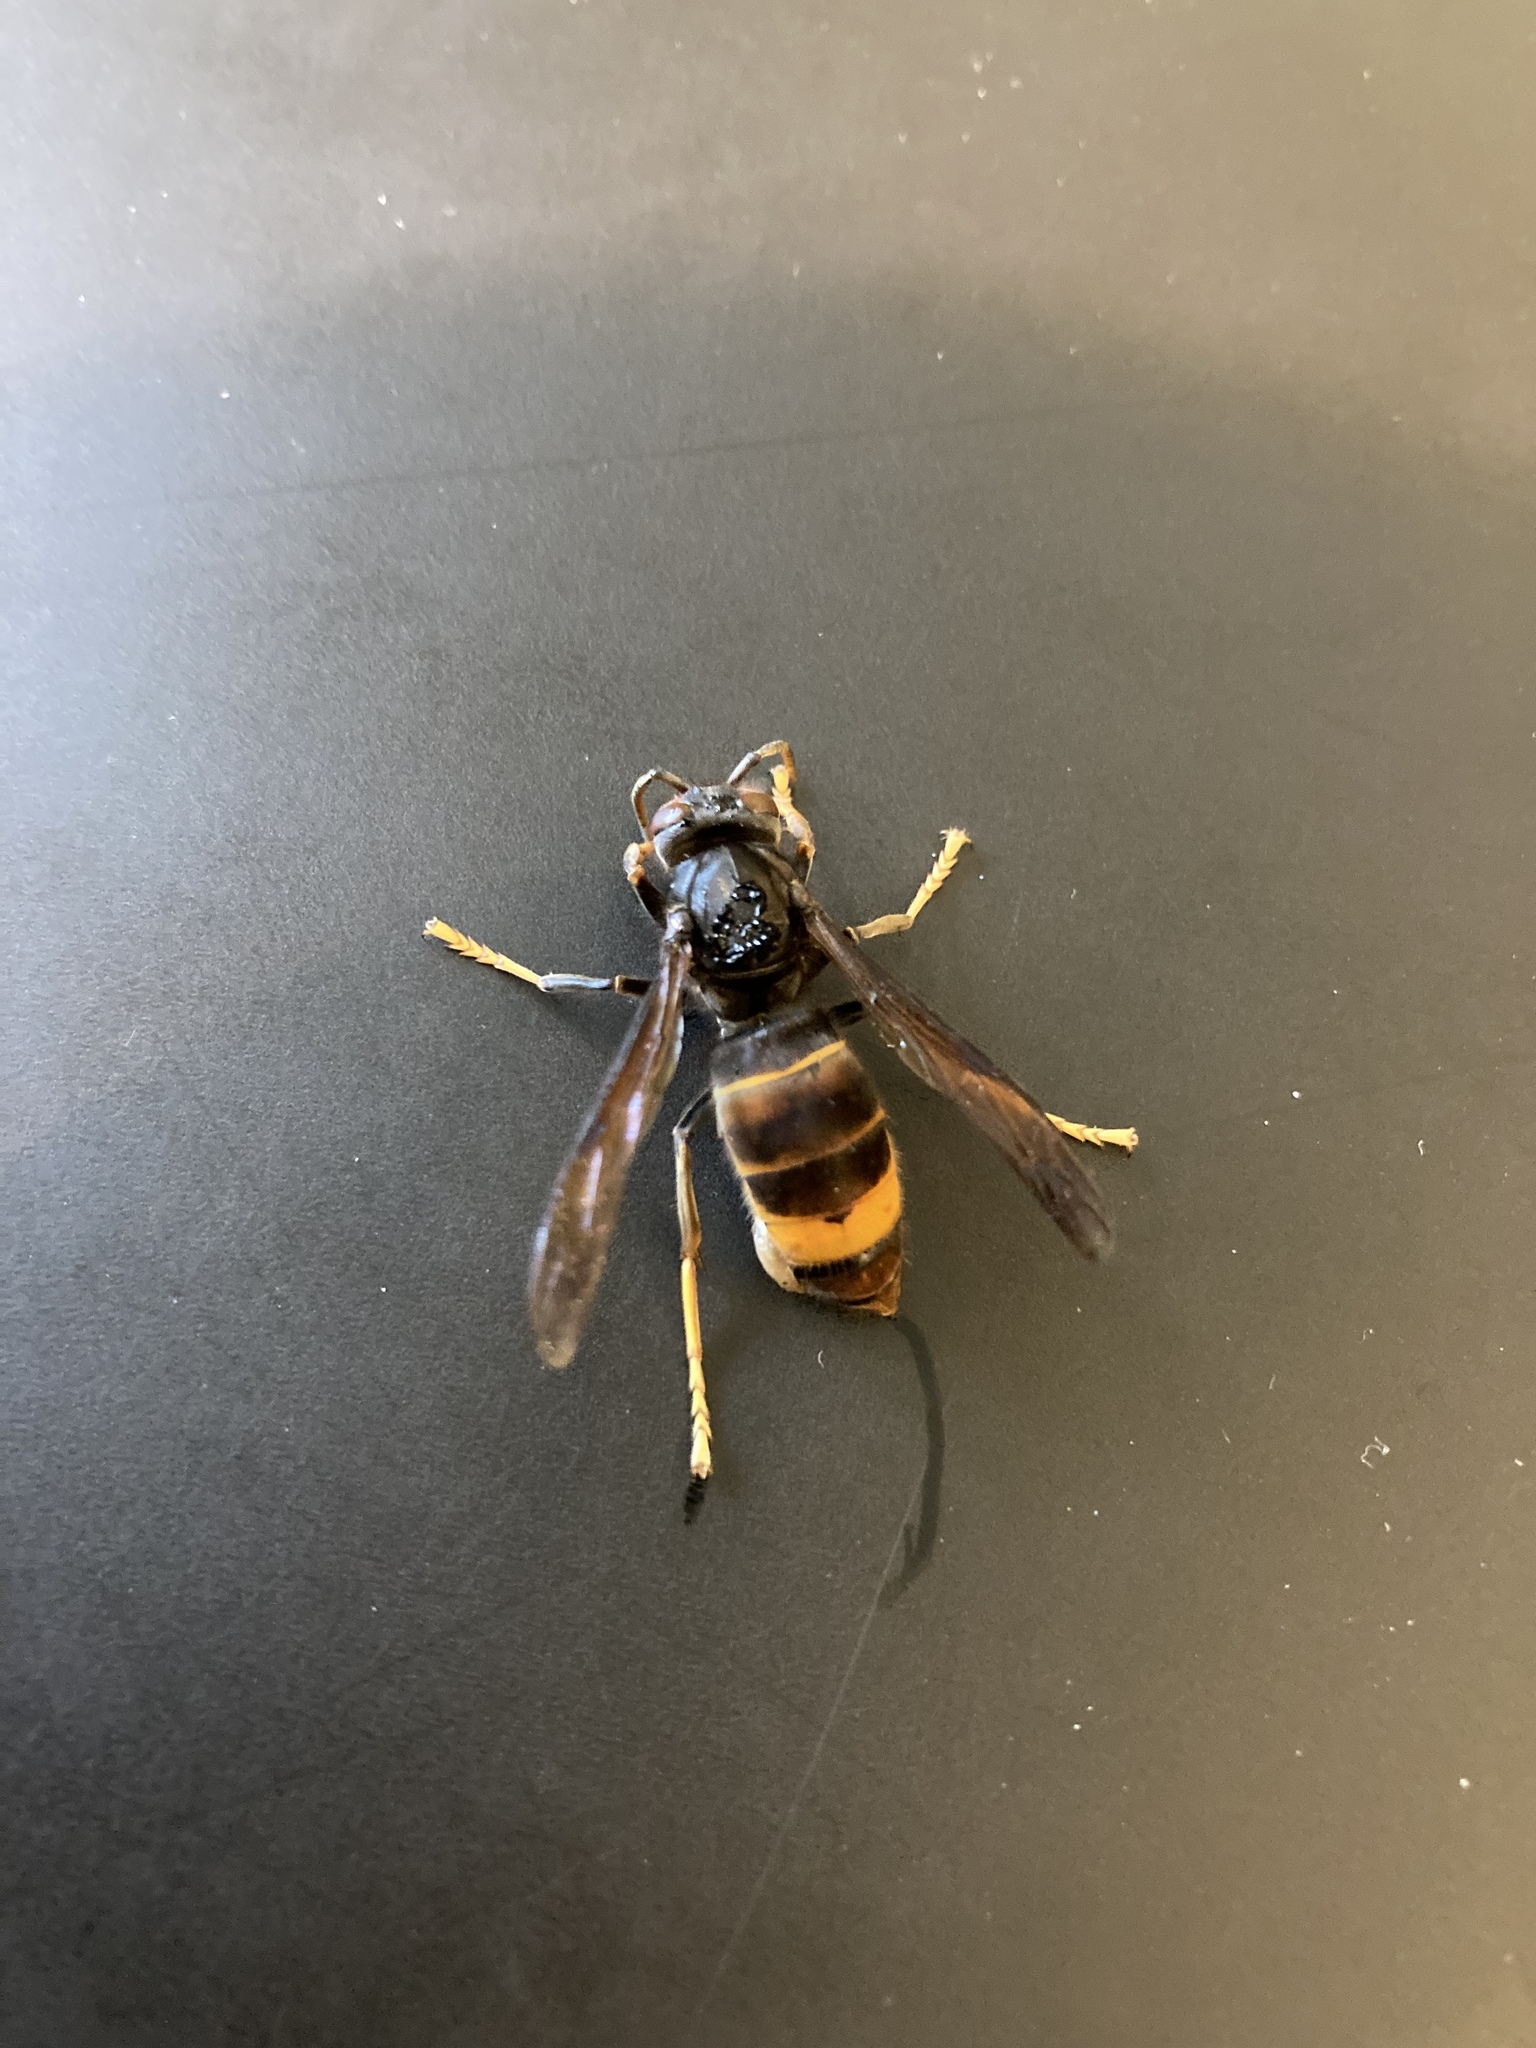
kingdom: Animalia
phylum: Arthropoda
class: Insecta
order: Hymenoptera
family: Vespidae
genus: Vespa
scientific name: Vespa velutina
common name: Asian hornet
